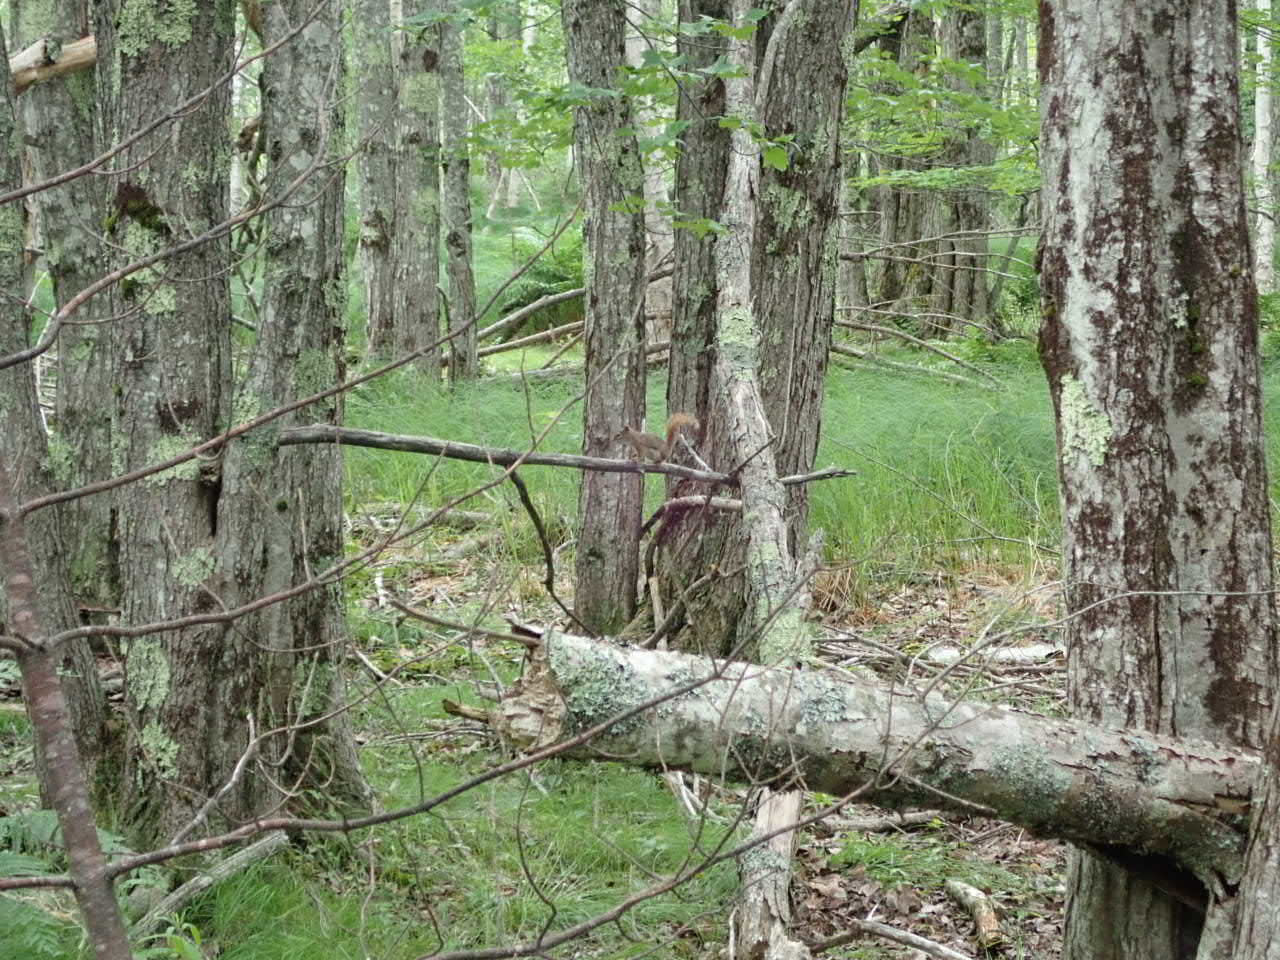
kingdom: Animalia
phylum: Chordata
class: Mammalia
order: Rodentia
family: Sciuridae
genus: Tamiasciurus
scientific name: Tamiasciurus hudsonicus
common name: Red squirrel
